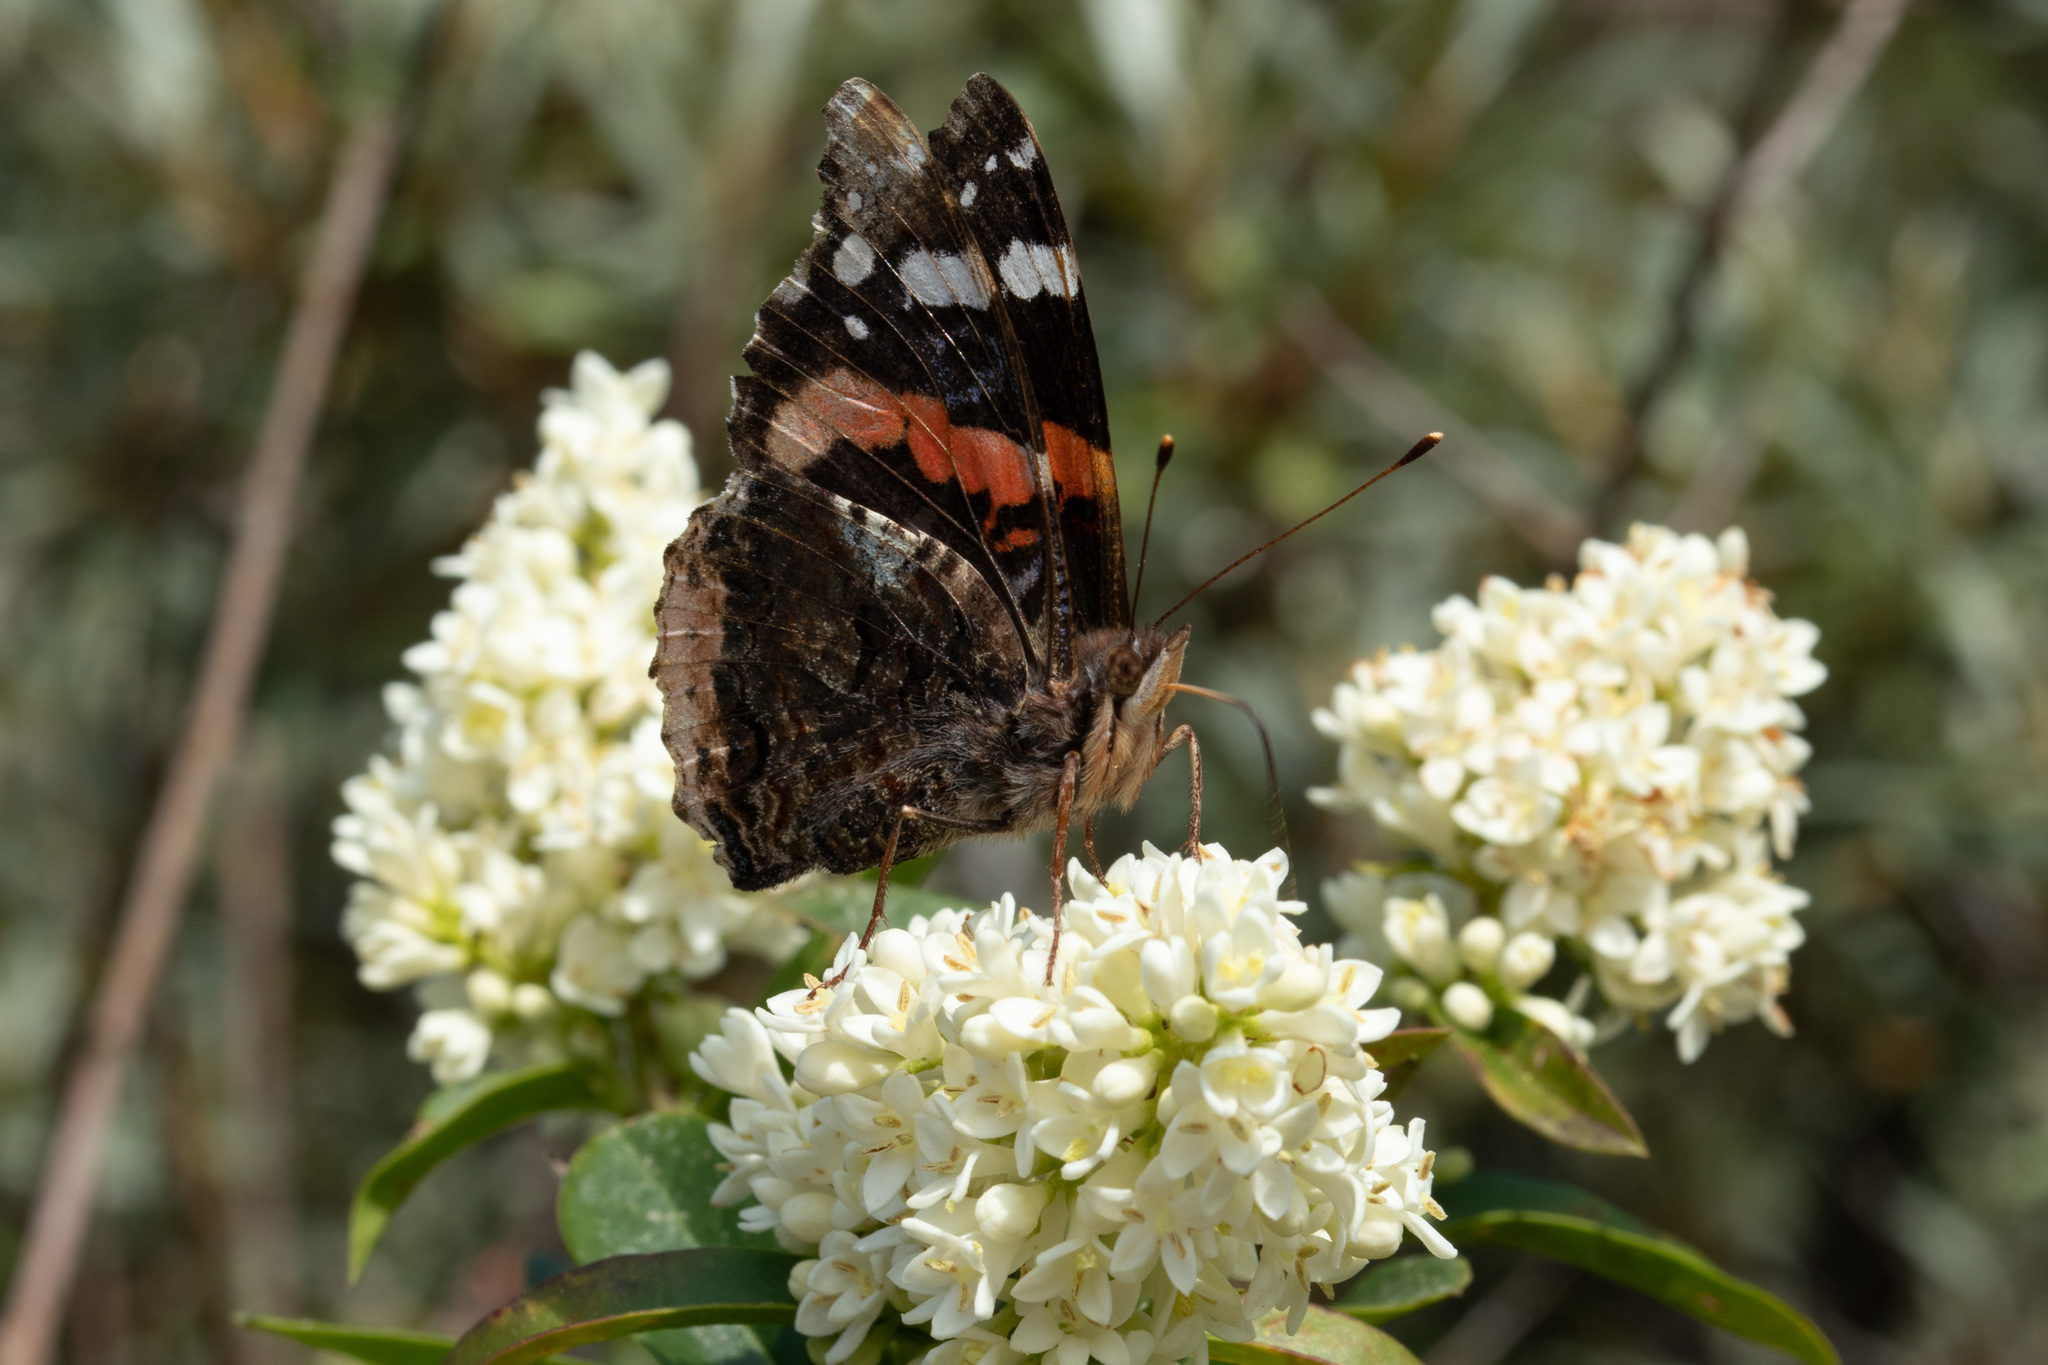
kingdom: Animalia
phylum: Arthropoda
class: Insecta
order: Lepidoptera
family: Nymphalidae
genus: Vanessa
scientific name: Vanessa atalanta
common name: Red admiral
